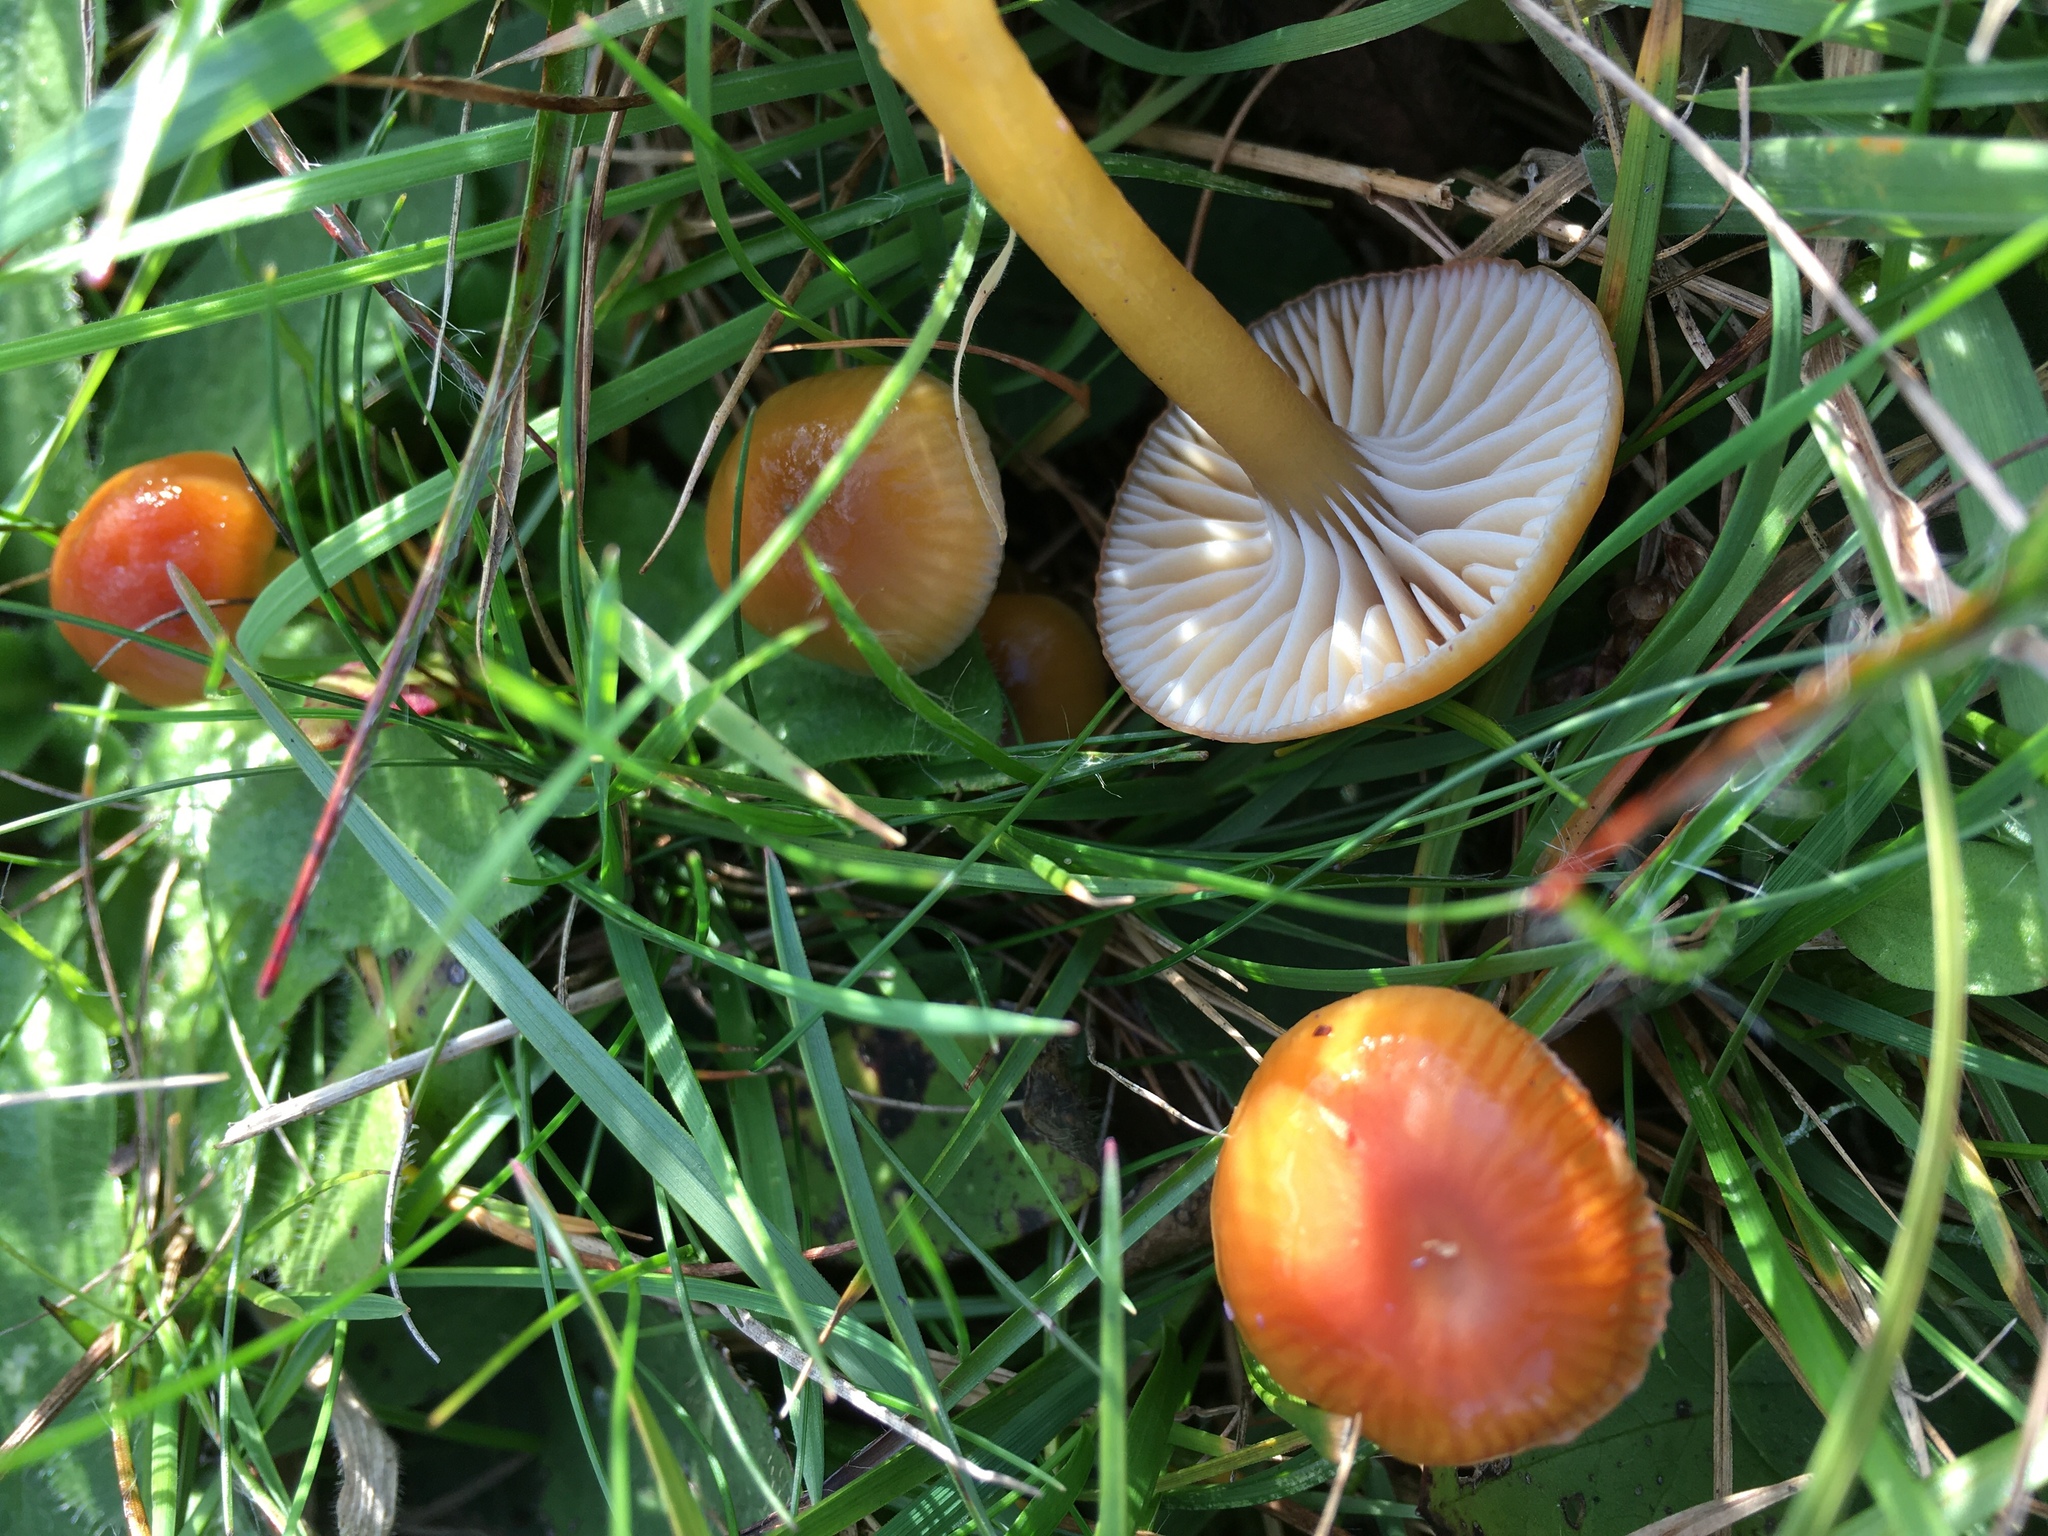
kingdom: Fungi
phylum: Basidiomycota
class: Agaricomycetes
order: Agaricales
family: Hygrophoraceae
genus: Gliophorus
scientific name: Gliophorus laetus
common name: Heath waxcap
